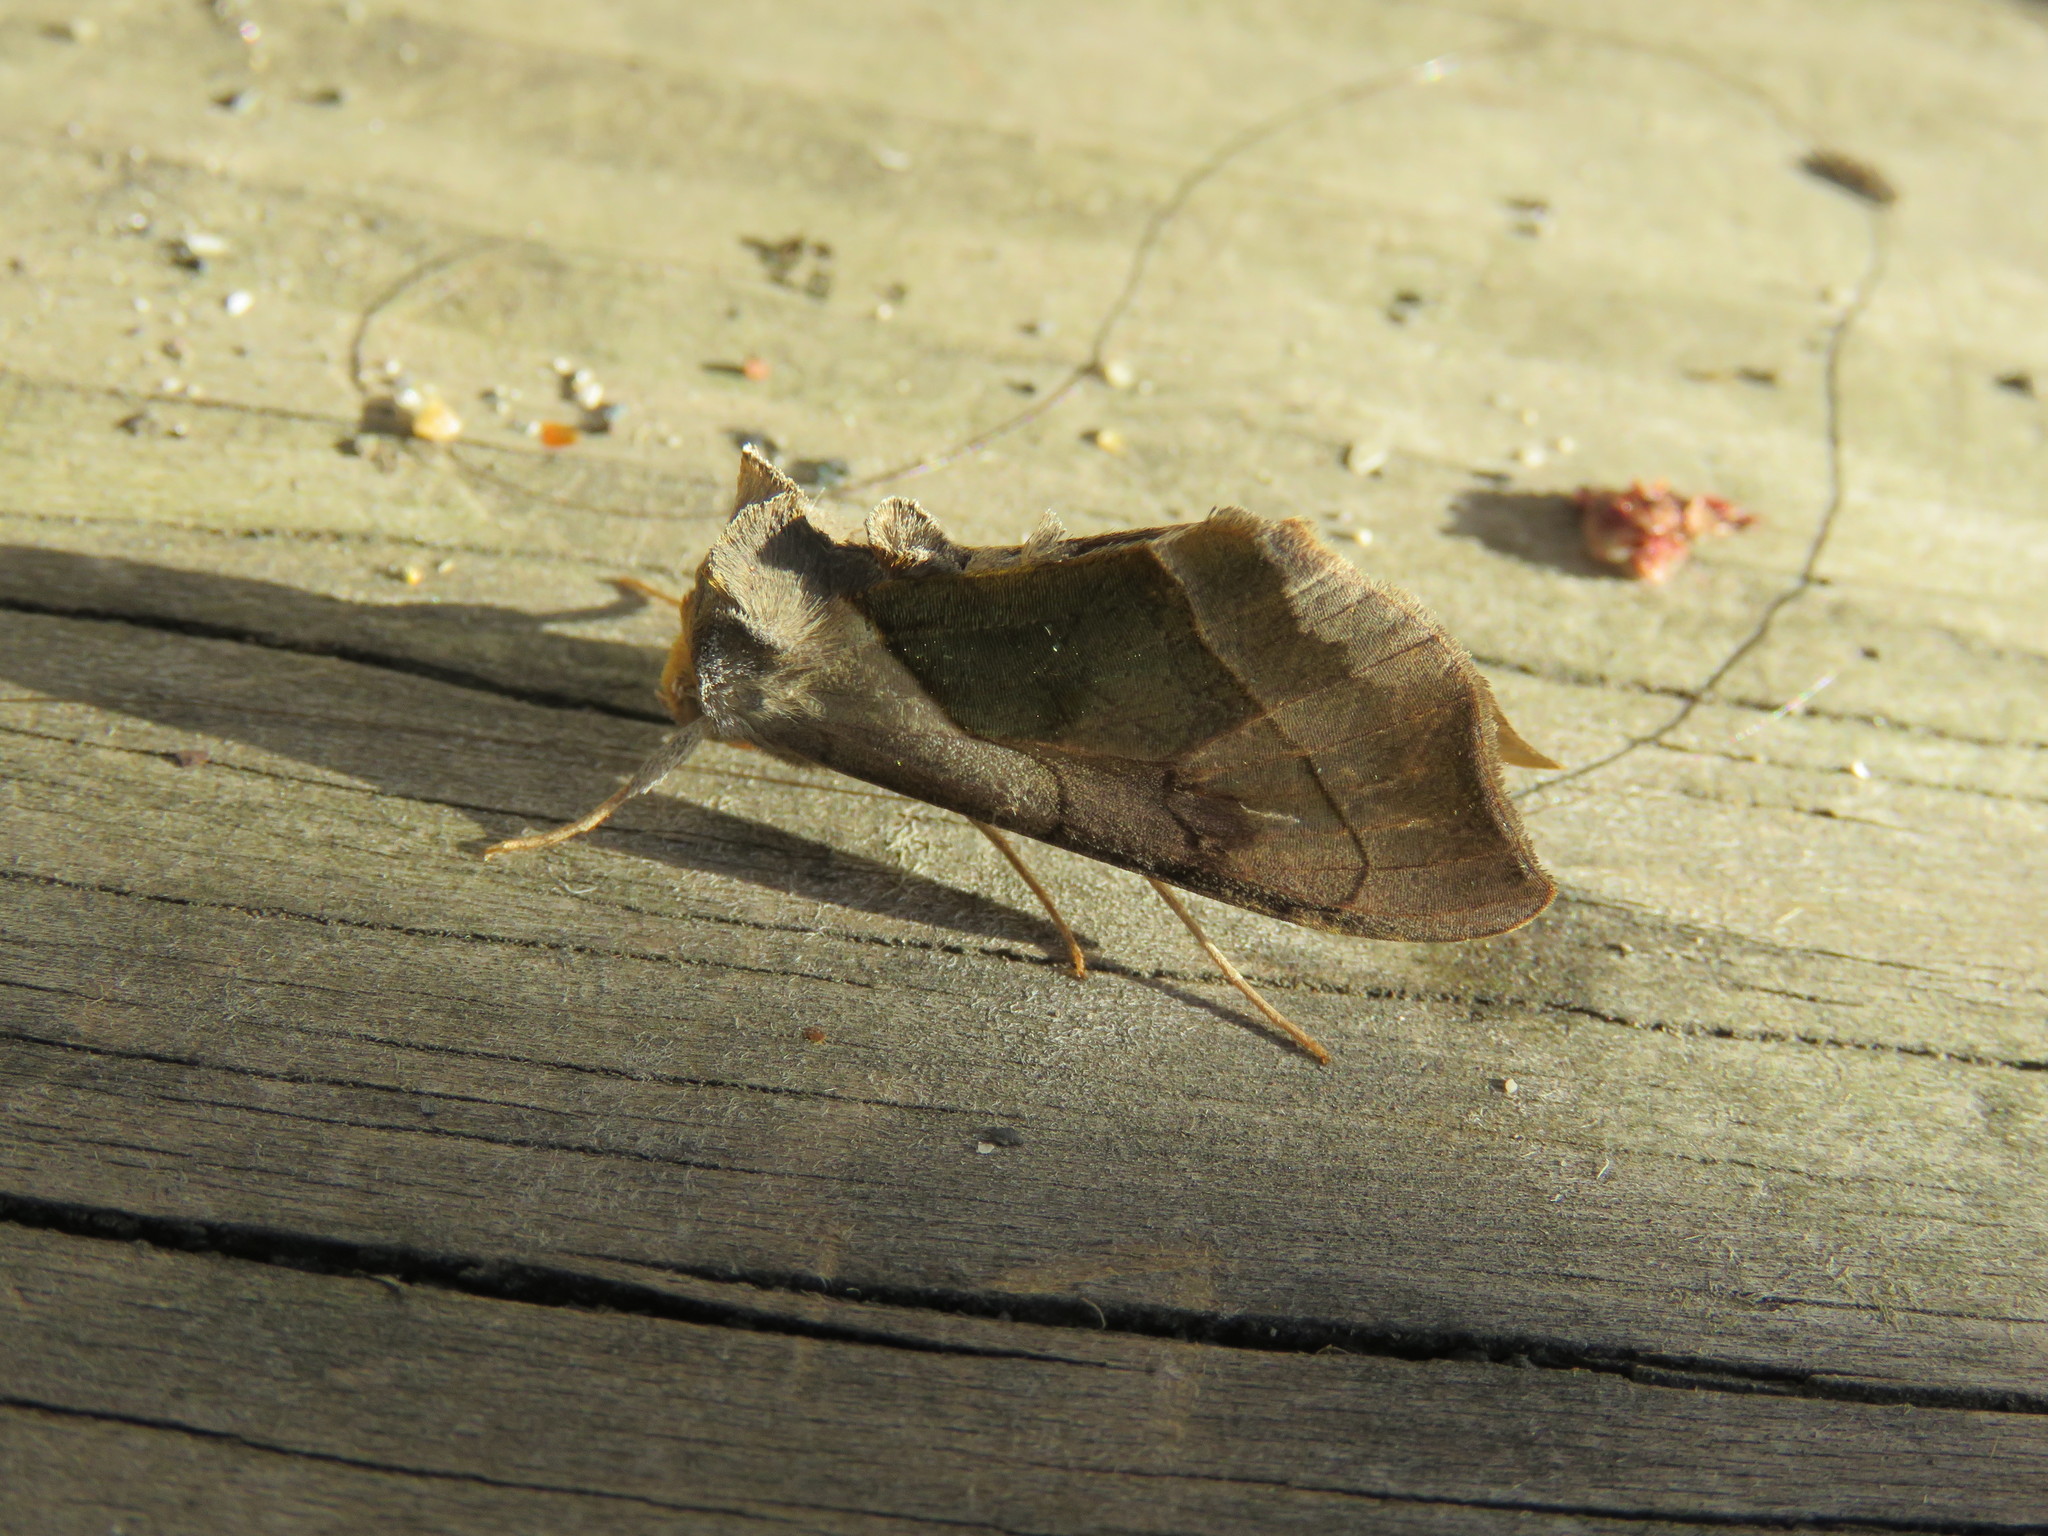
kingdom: Animalia
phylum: Arthropoda
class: Insecta
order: Lepidoptera
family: Noctuidae
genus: Diachrysia
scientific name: Diachrysia balluca
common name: Green-patched looper moth
